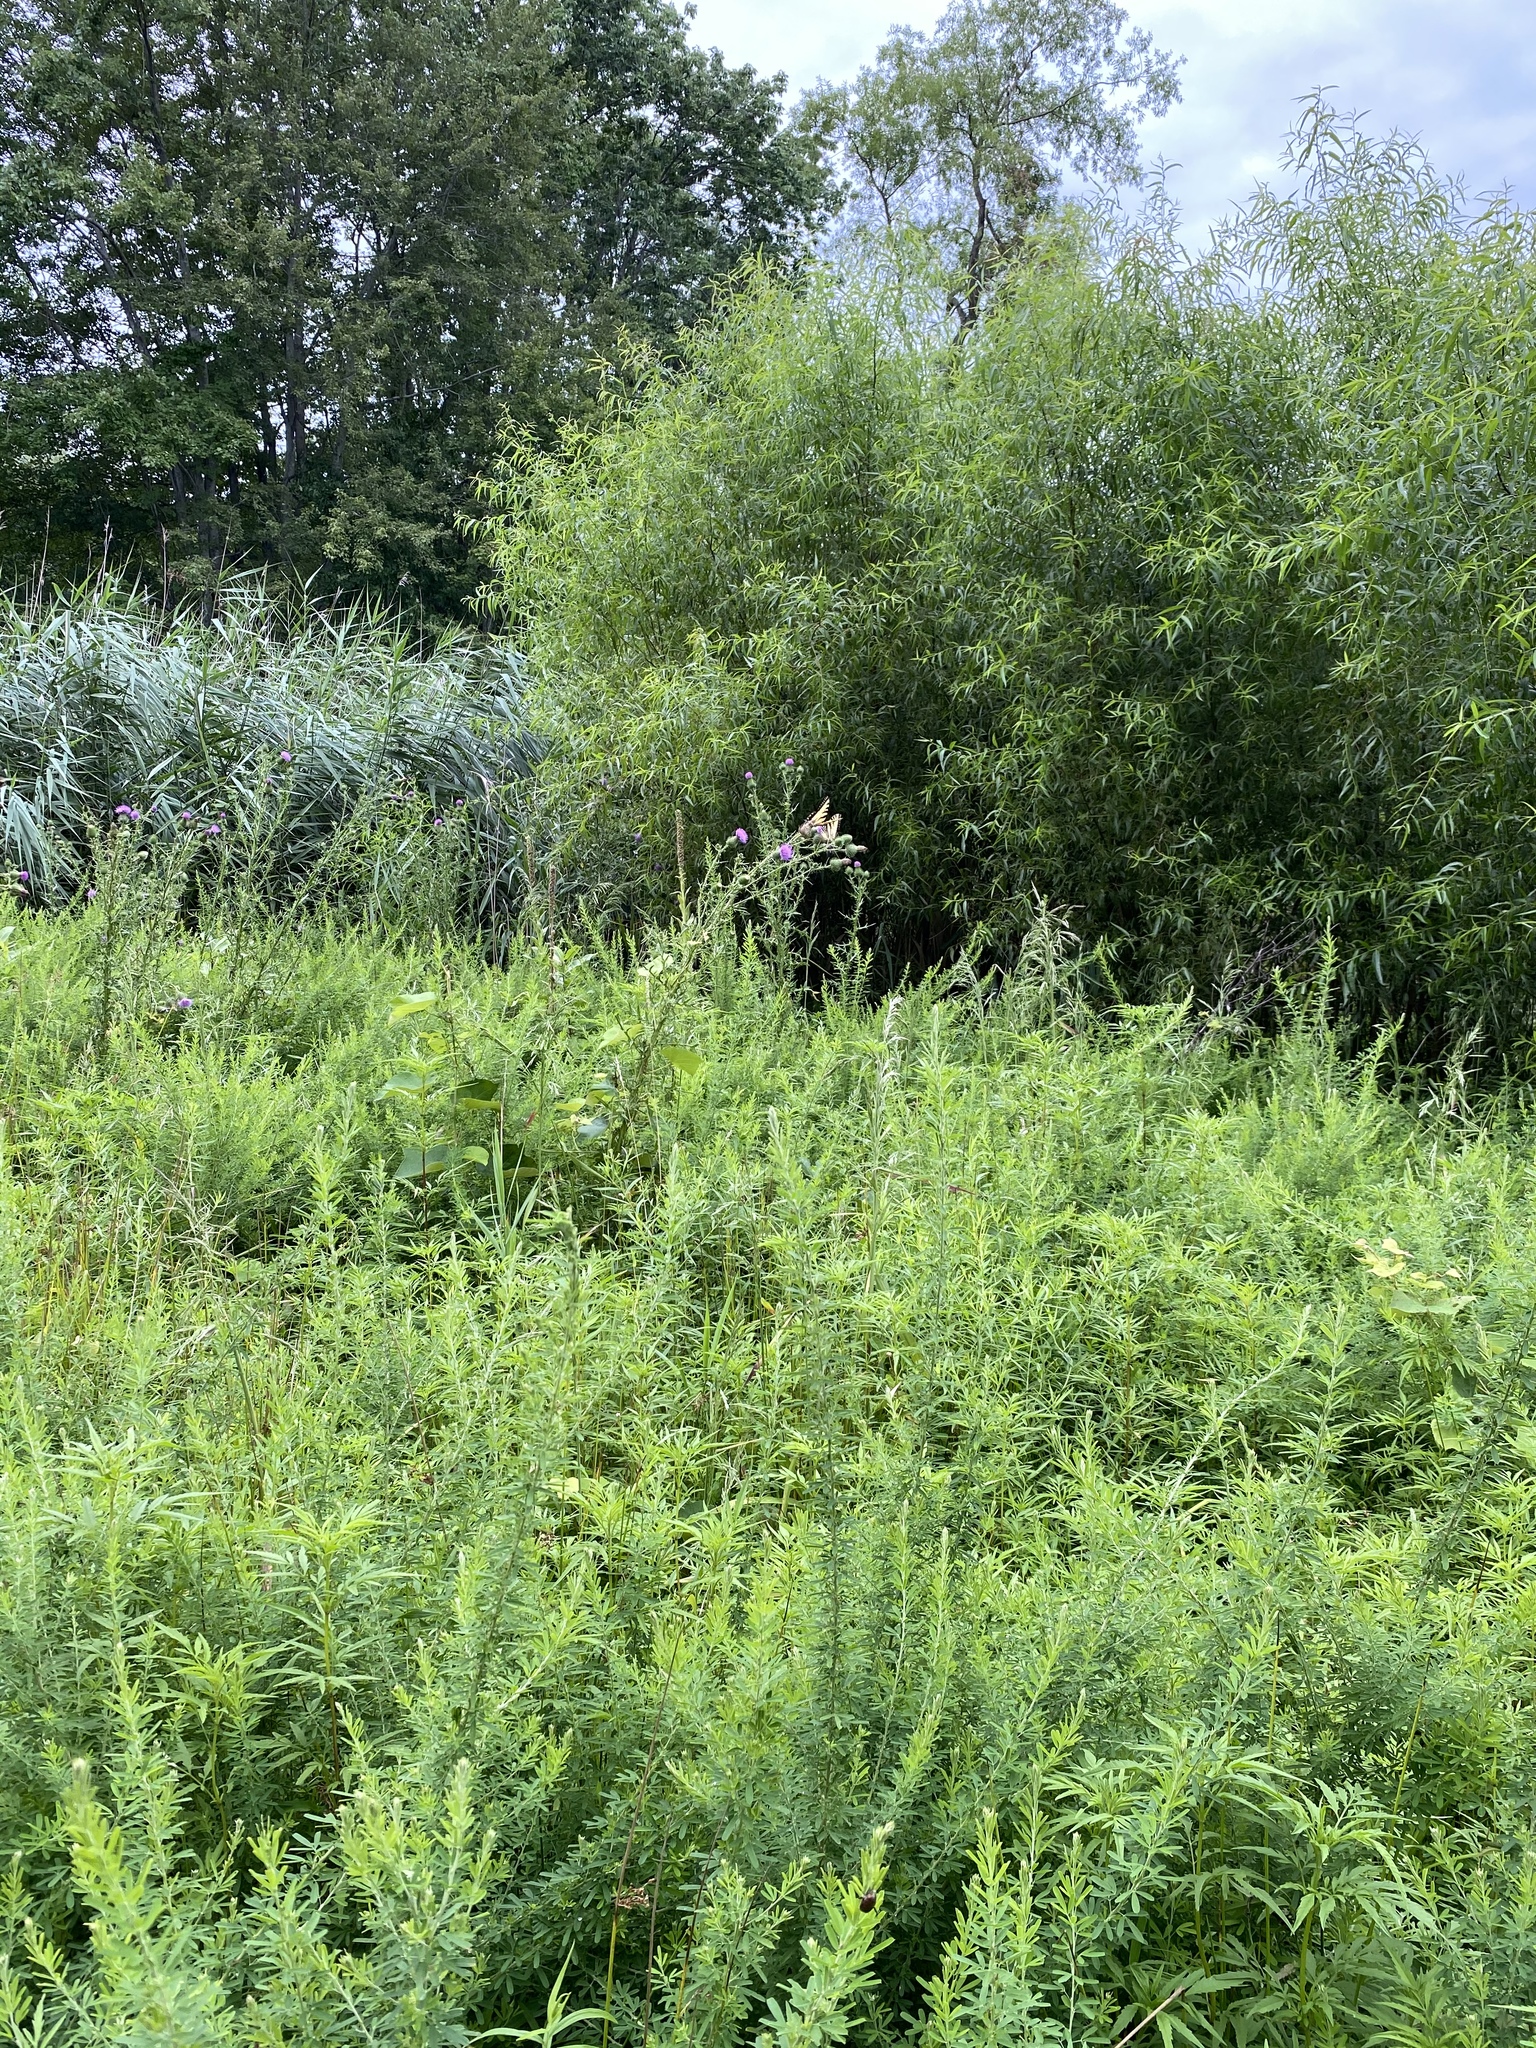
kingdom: Animalia
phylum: Arthropoda
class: Insecta
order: Lepidoptera
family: Papilionidae
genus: Papilio
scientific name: Papilio glaucus
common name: Tiger swallowtail
